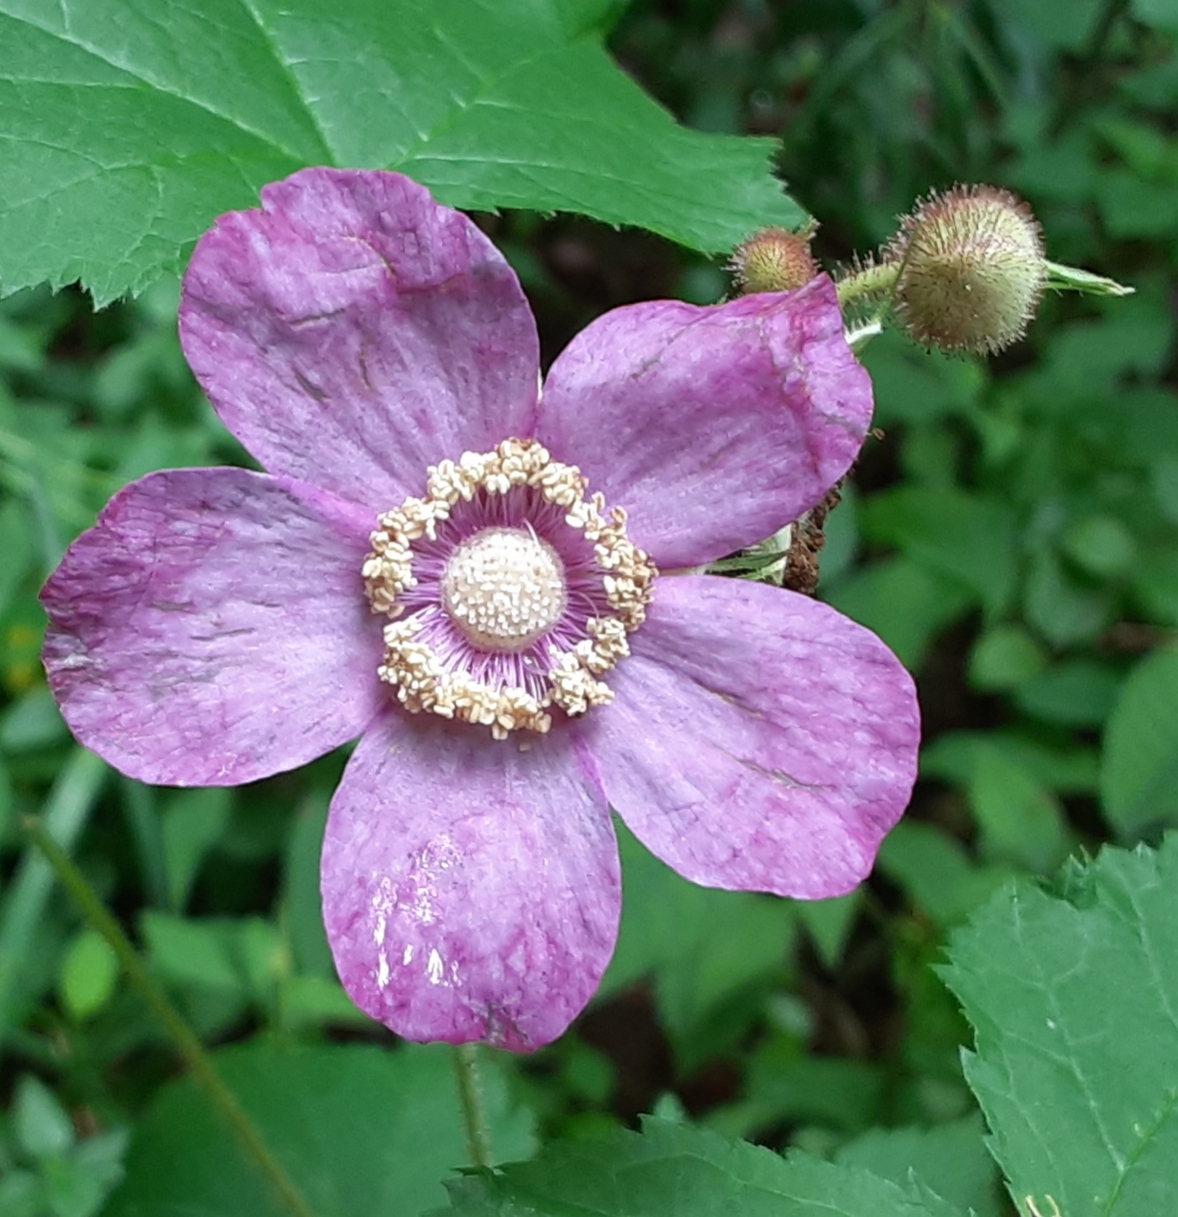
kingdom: Plantae
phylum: Tracheophyta
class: Magnoliopsida
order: Rosales
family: Rosaceae
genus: Rubus
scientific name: Rubus odoratus
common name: Purple-flowered raspberry
